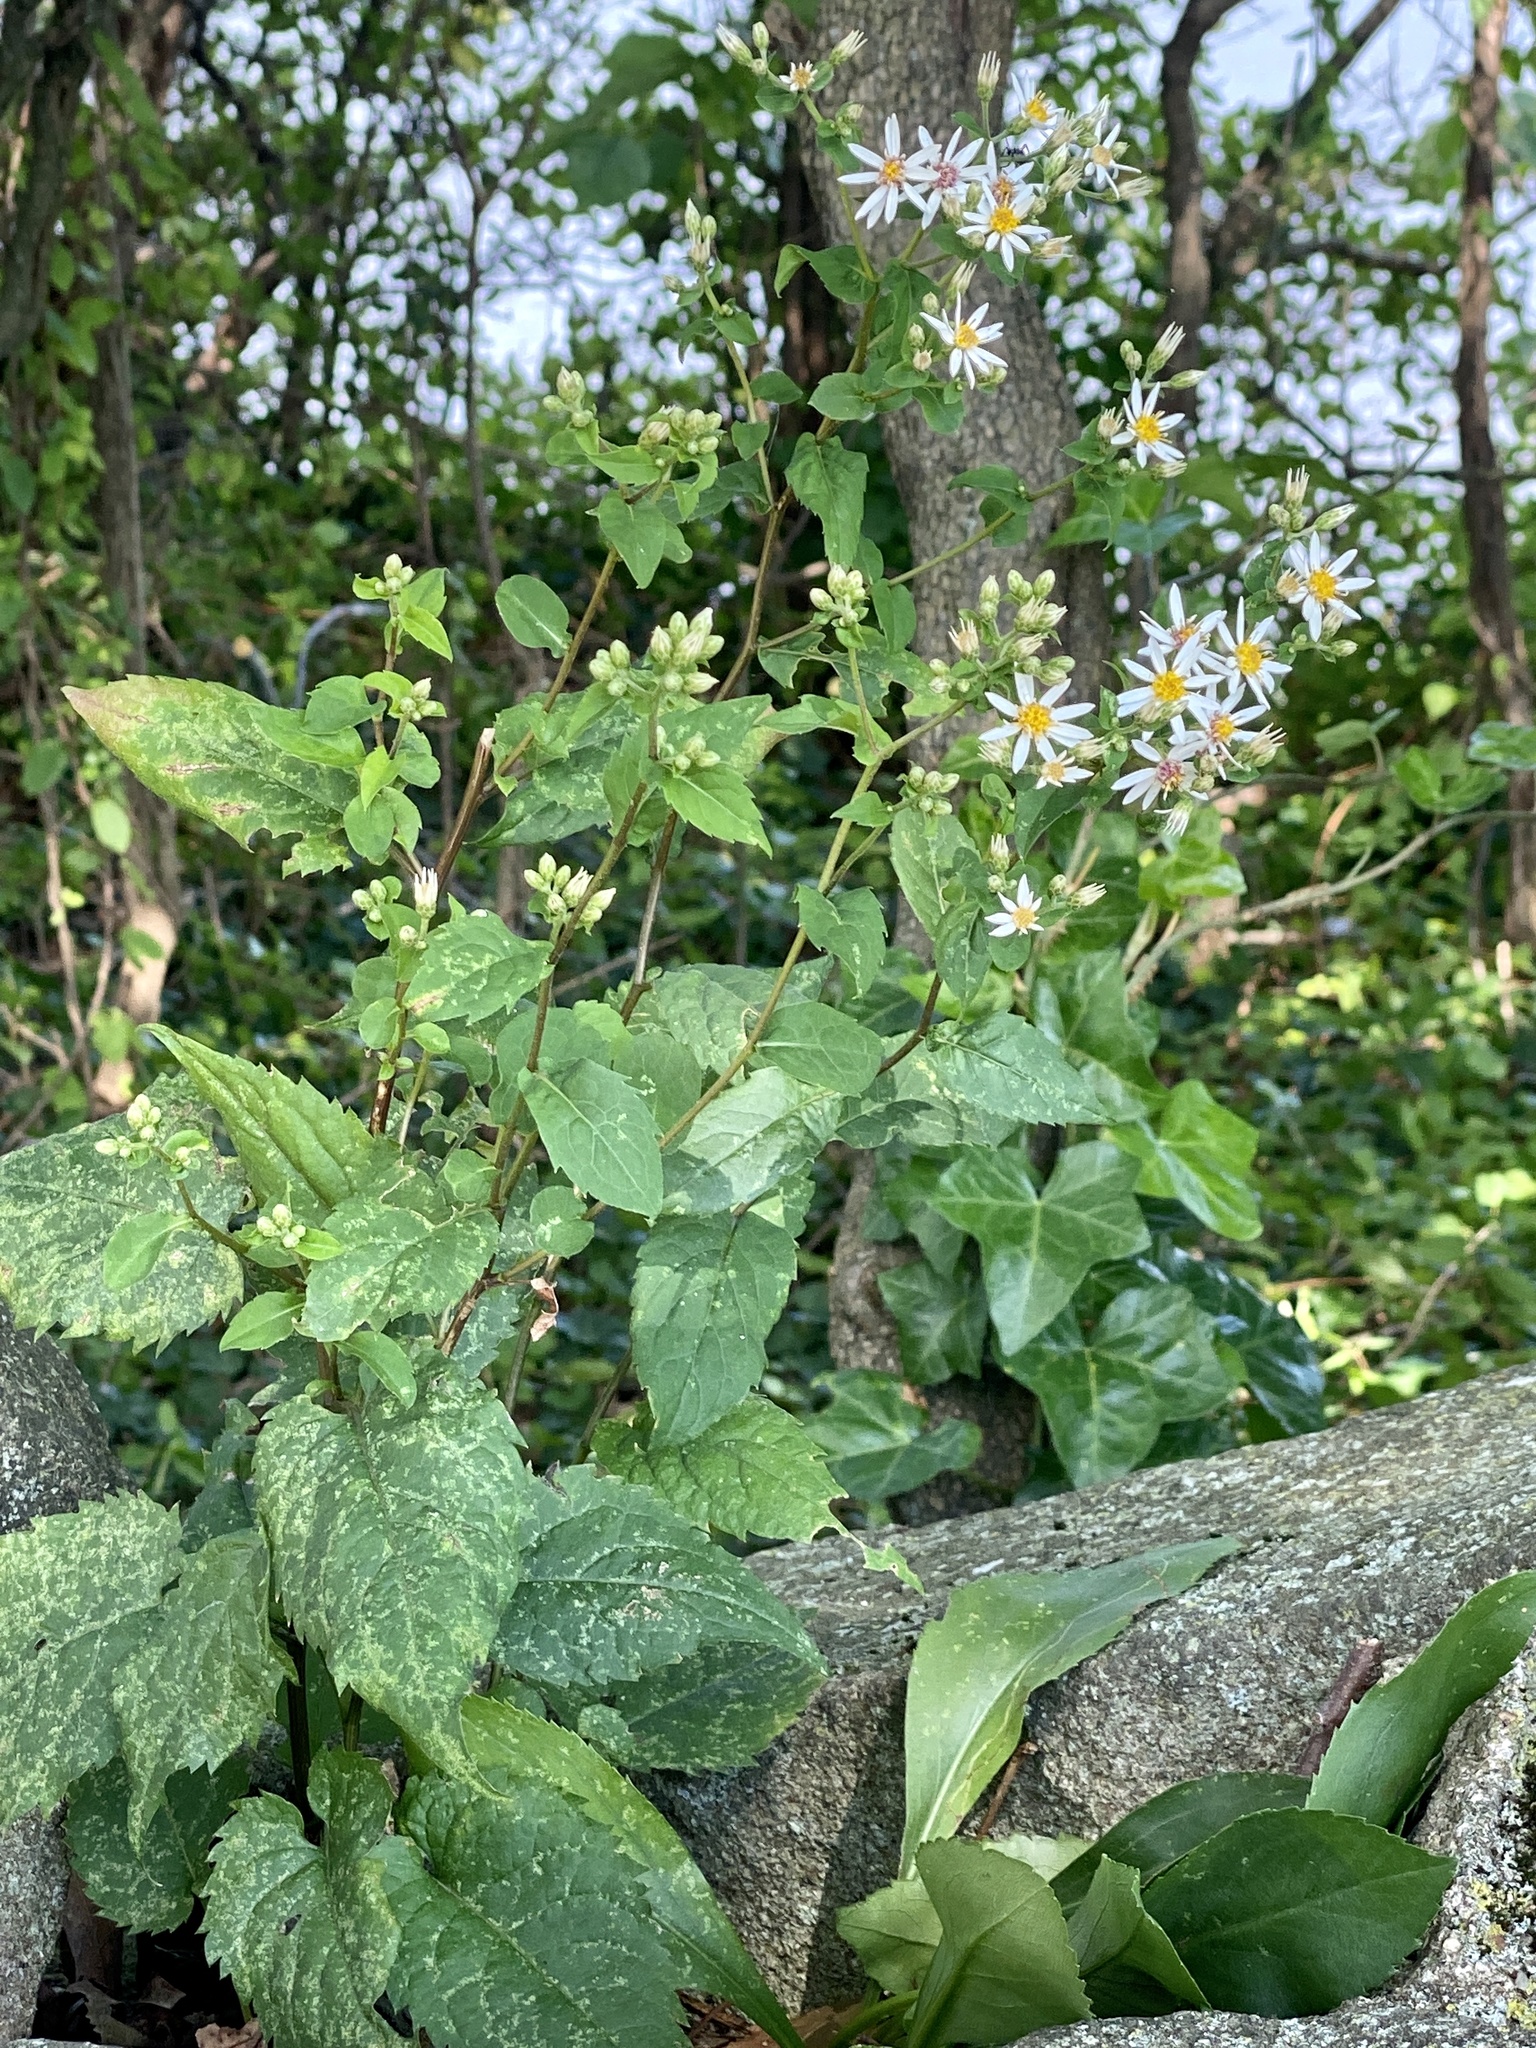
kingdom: Plantae
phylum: Tracheophyta
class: Magnoliopsida
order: Asterales
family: Asteraceae
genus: Eurybia
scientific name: Eurybia divaricata
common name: White wood aster
